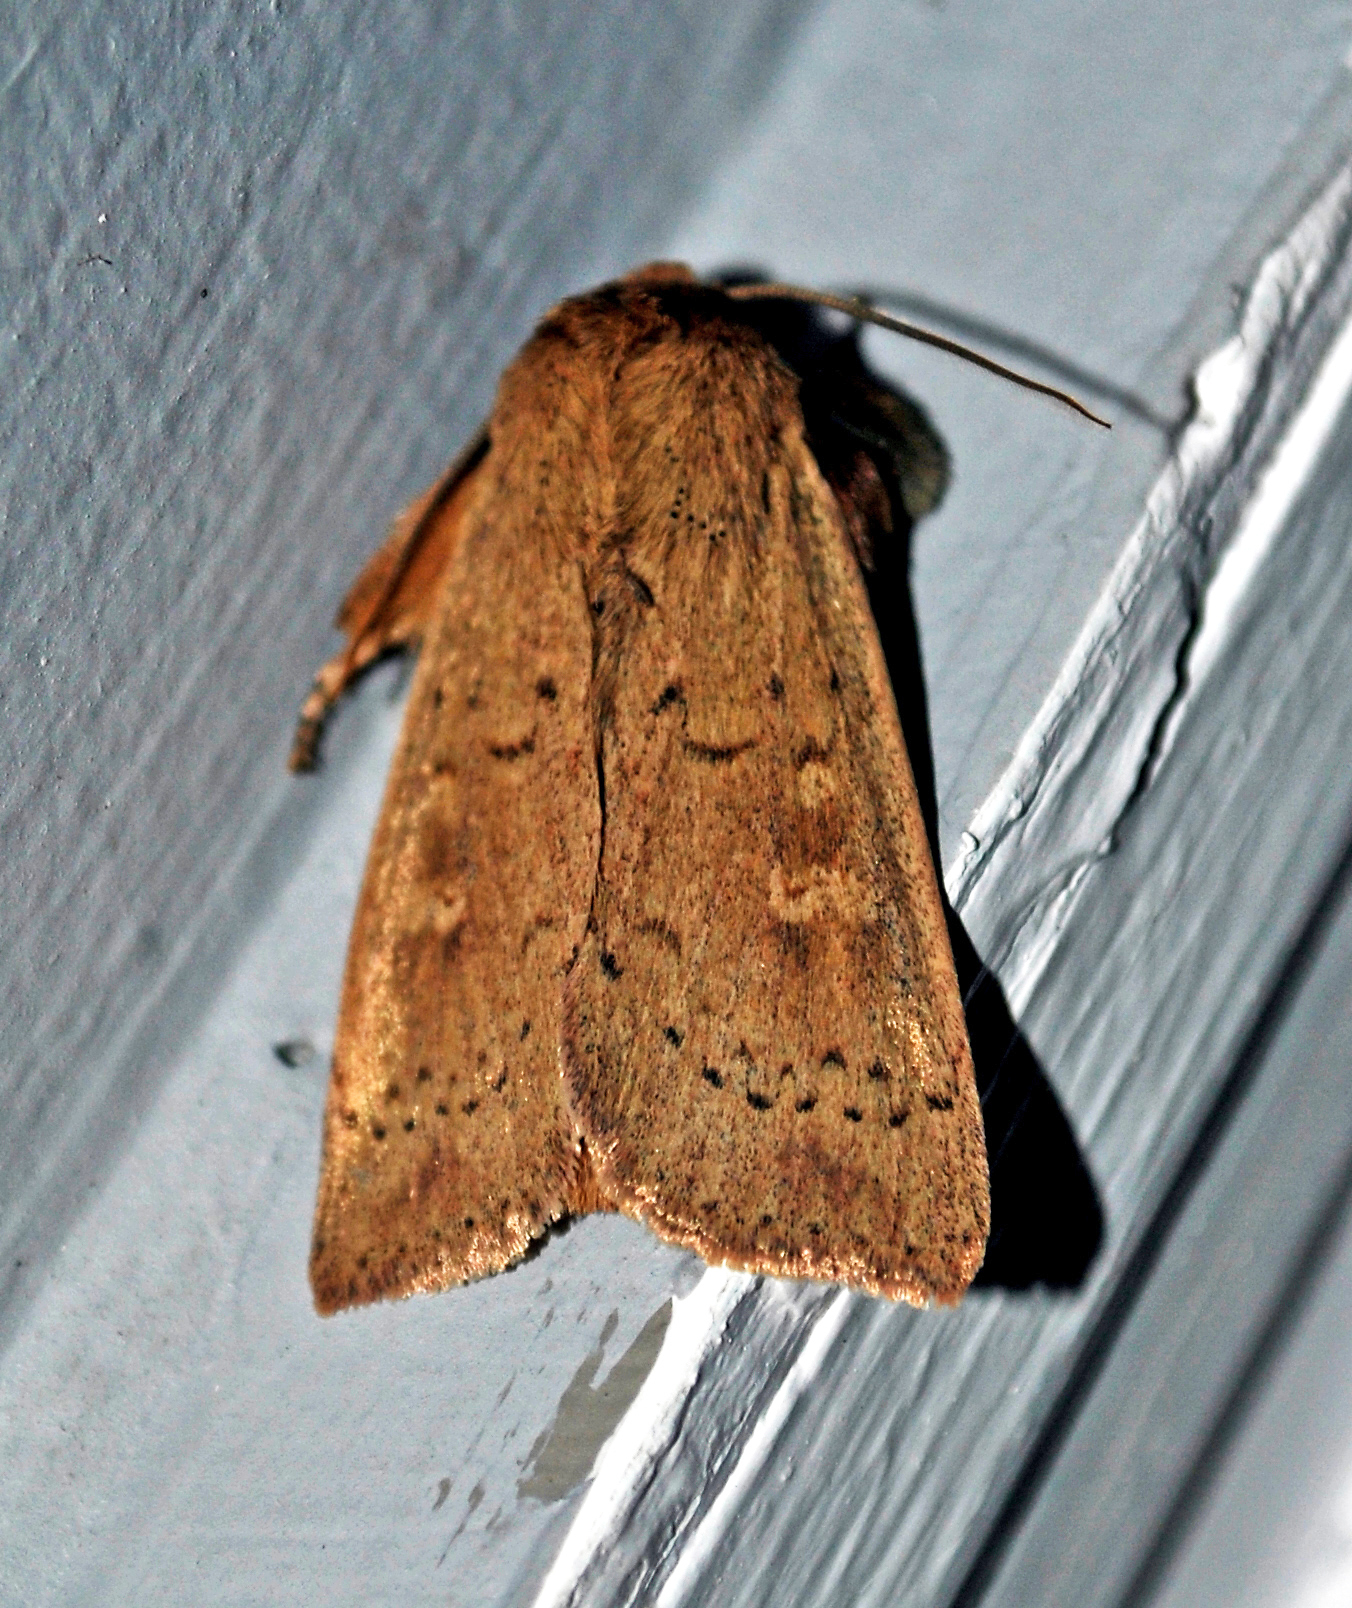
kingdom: Animalia
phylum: Arthropoda
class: Insecta
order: Lepidoptera
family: Noctuidae
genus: Leucania
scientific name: Leucania pseudargyria
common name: False wainscot
